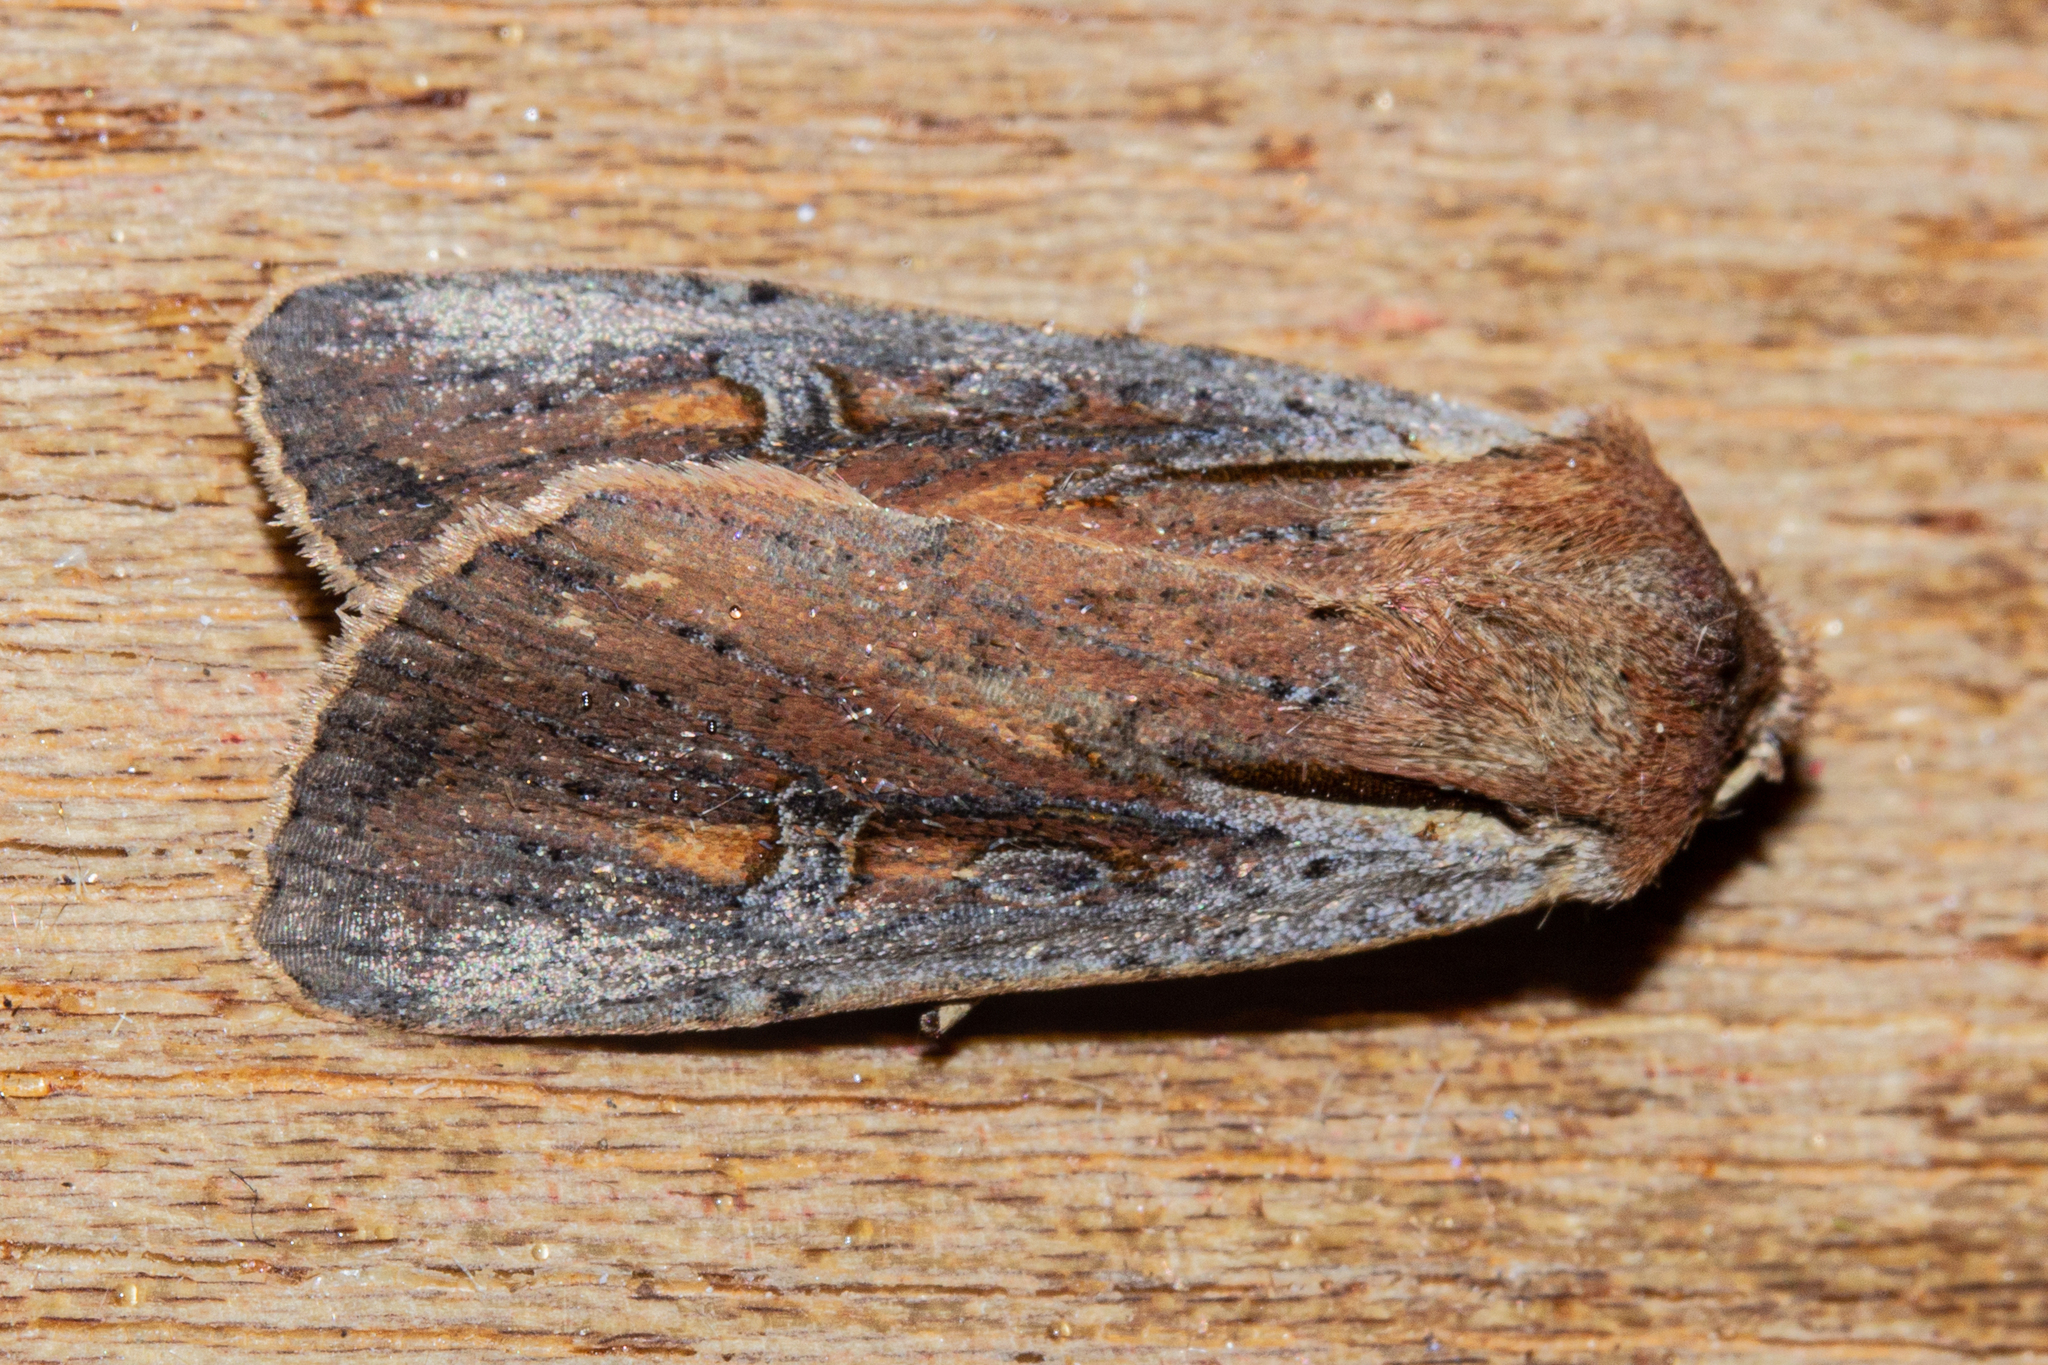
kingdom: Animalia
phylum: Arthropoda
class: Insecta
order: Lepidoptera
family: Noctuidae
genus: Ichneutica
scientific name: Ichneutica atristriga
